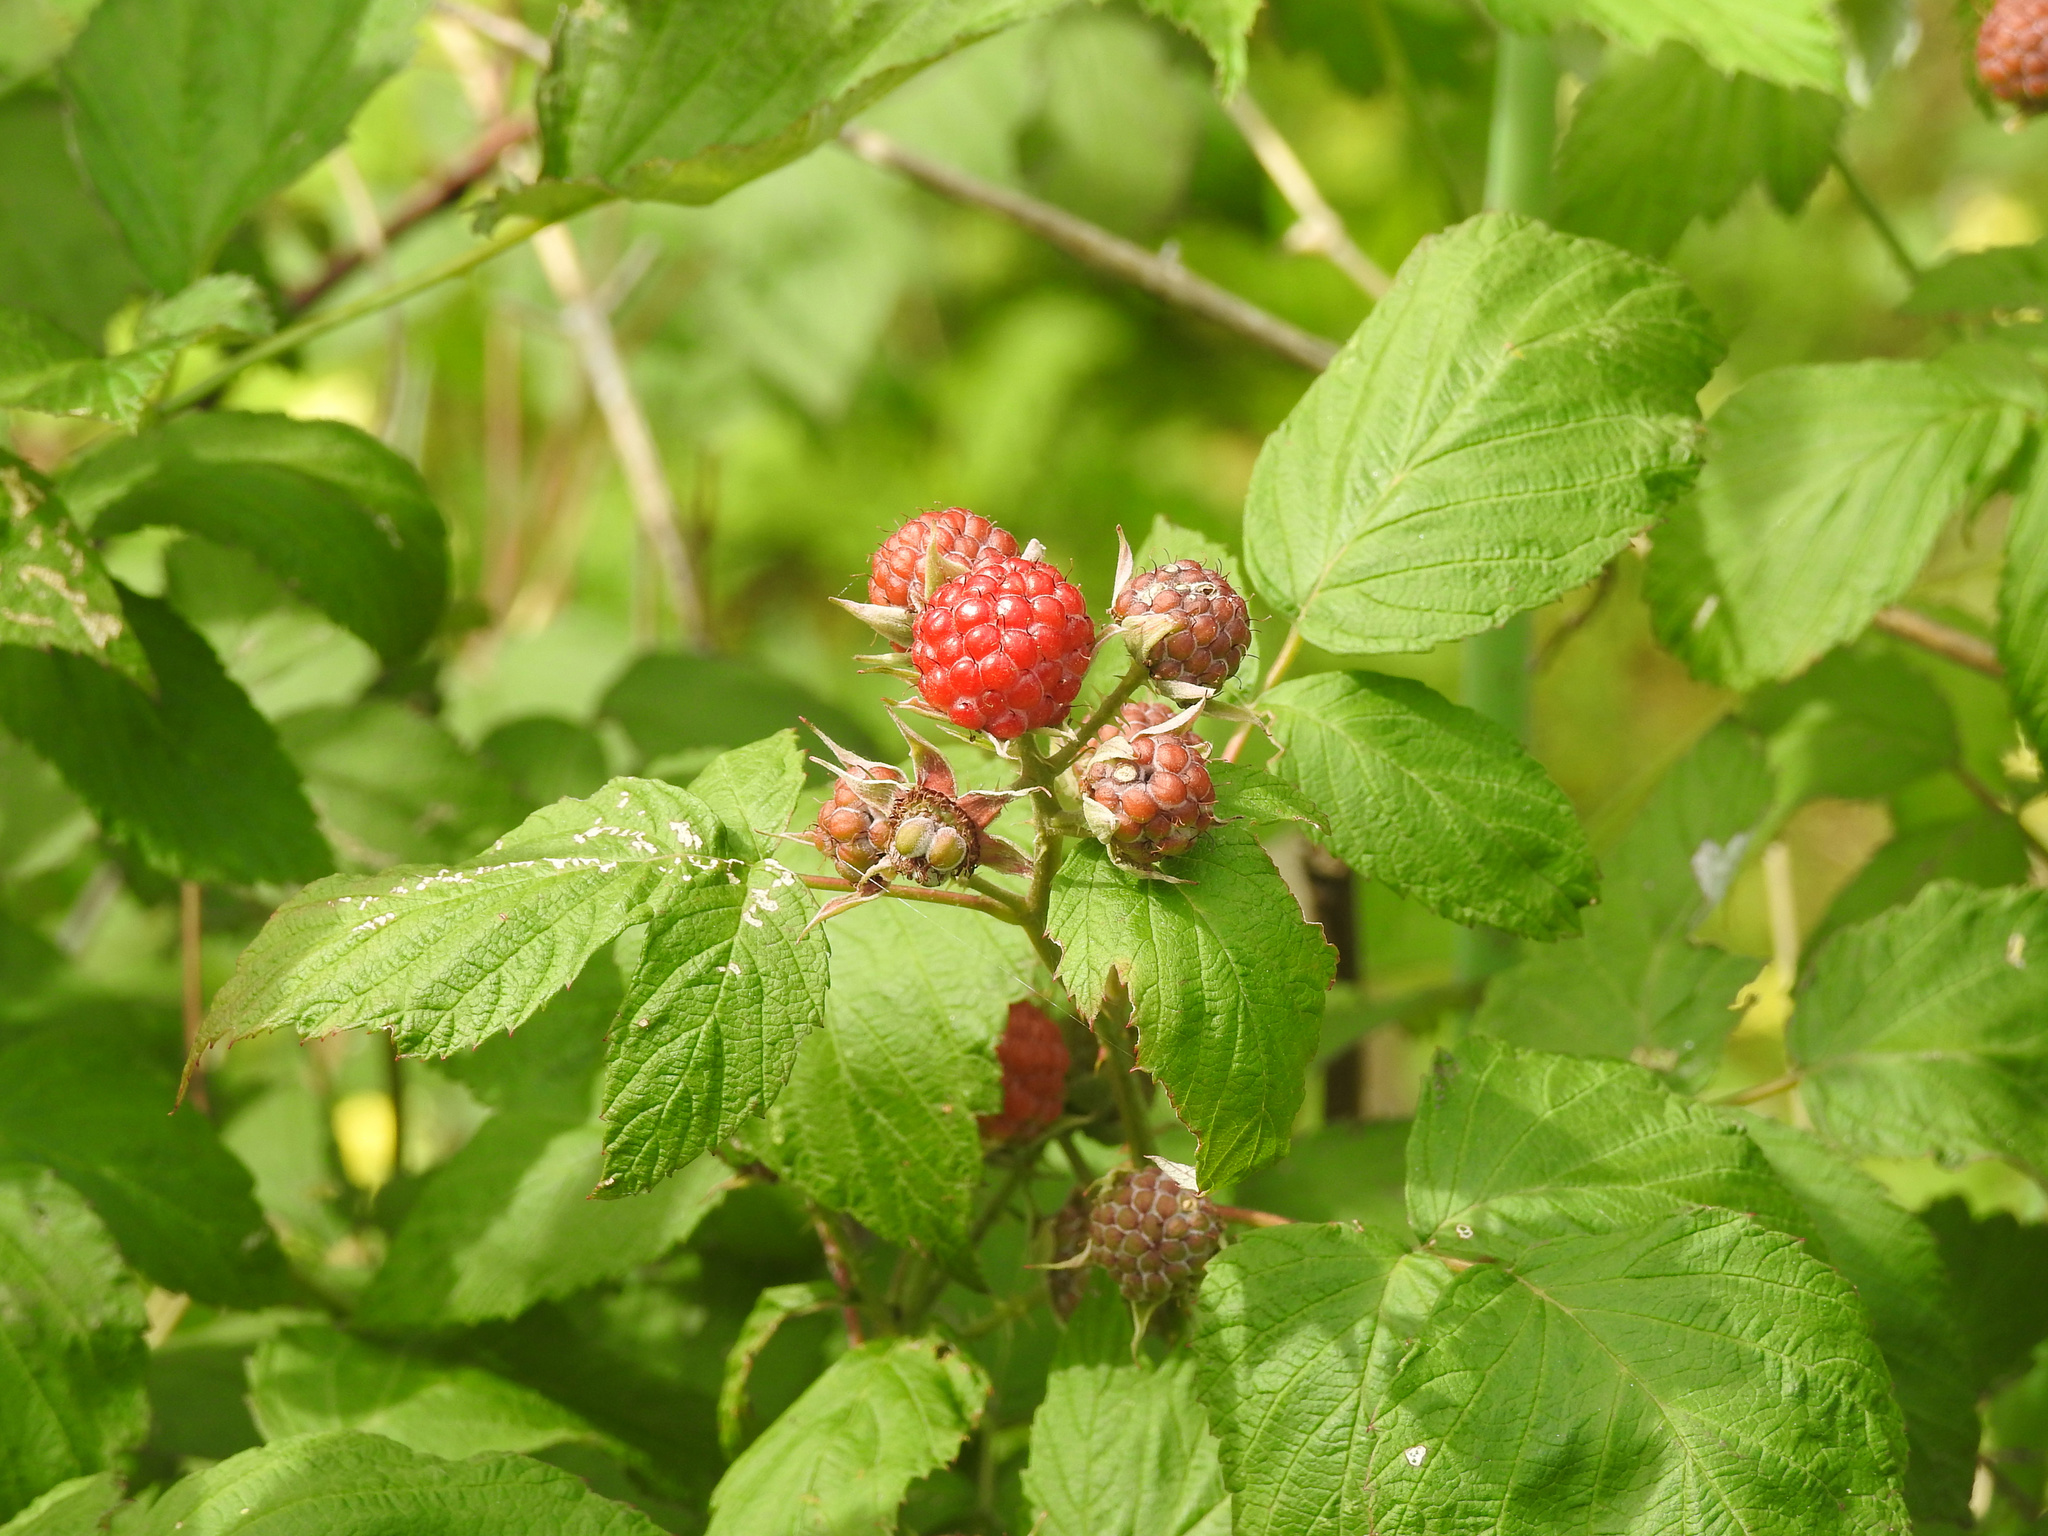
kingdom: Plantae
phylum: Tracheophyta
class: Magnoliopsida
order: Rosales
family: Rosaceae
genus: Rubus
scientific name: Rubus occidentalis
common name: Black raspberry
